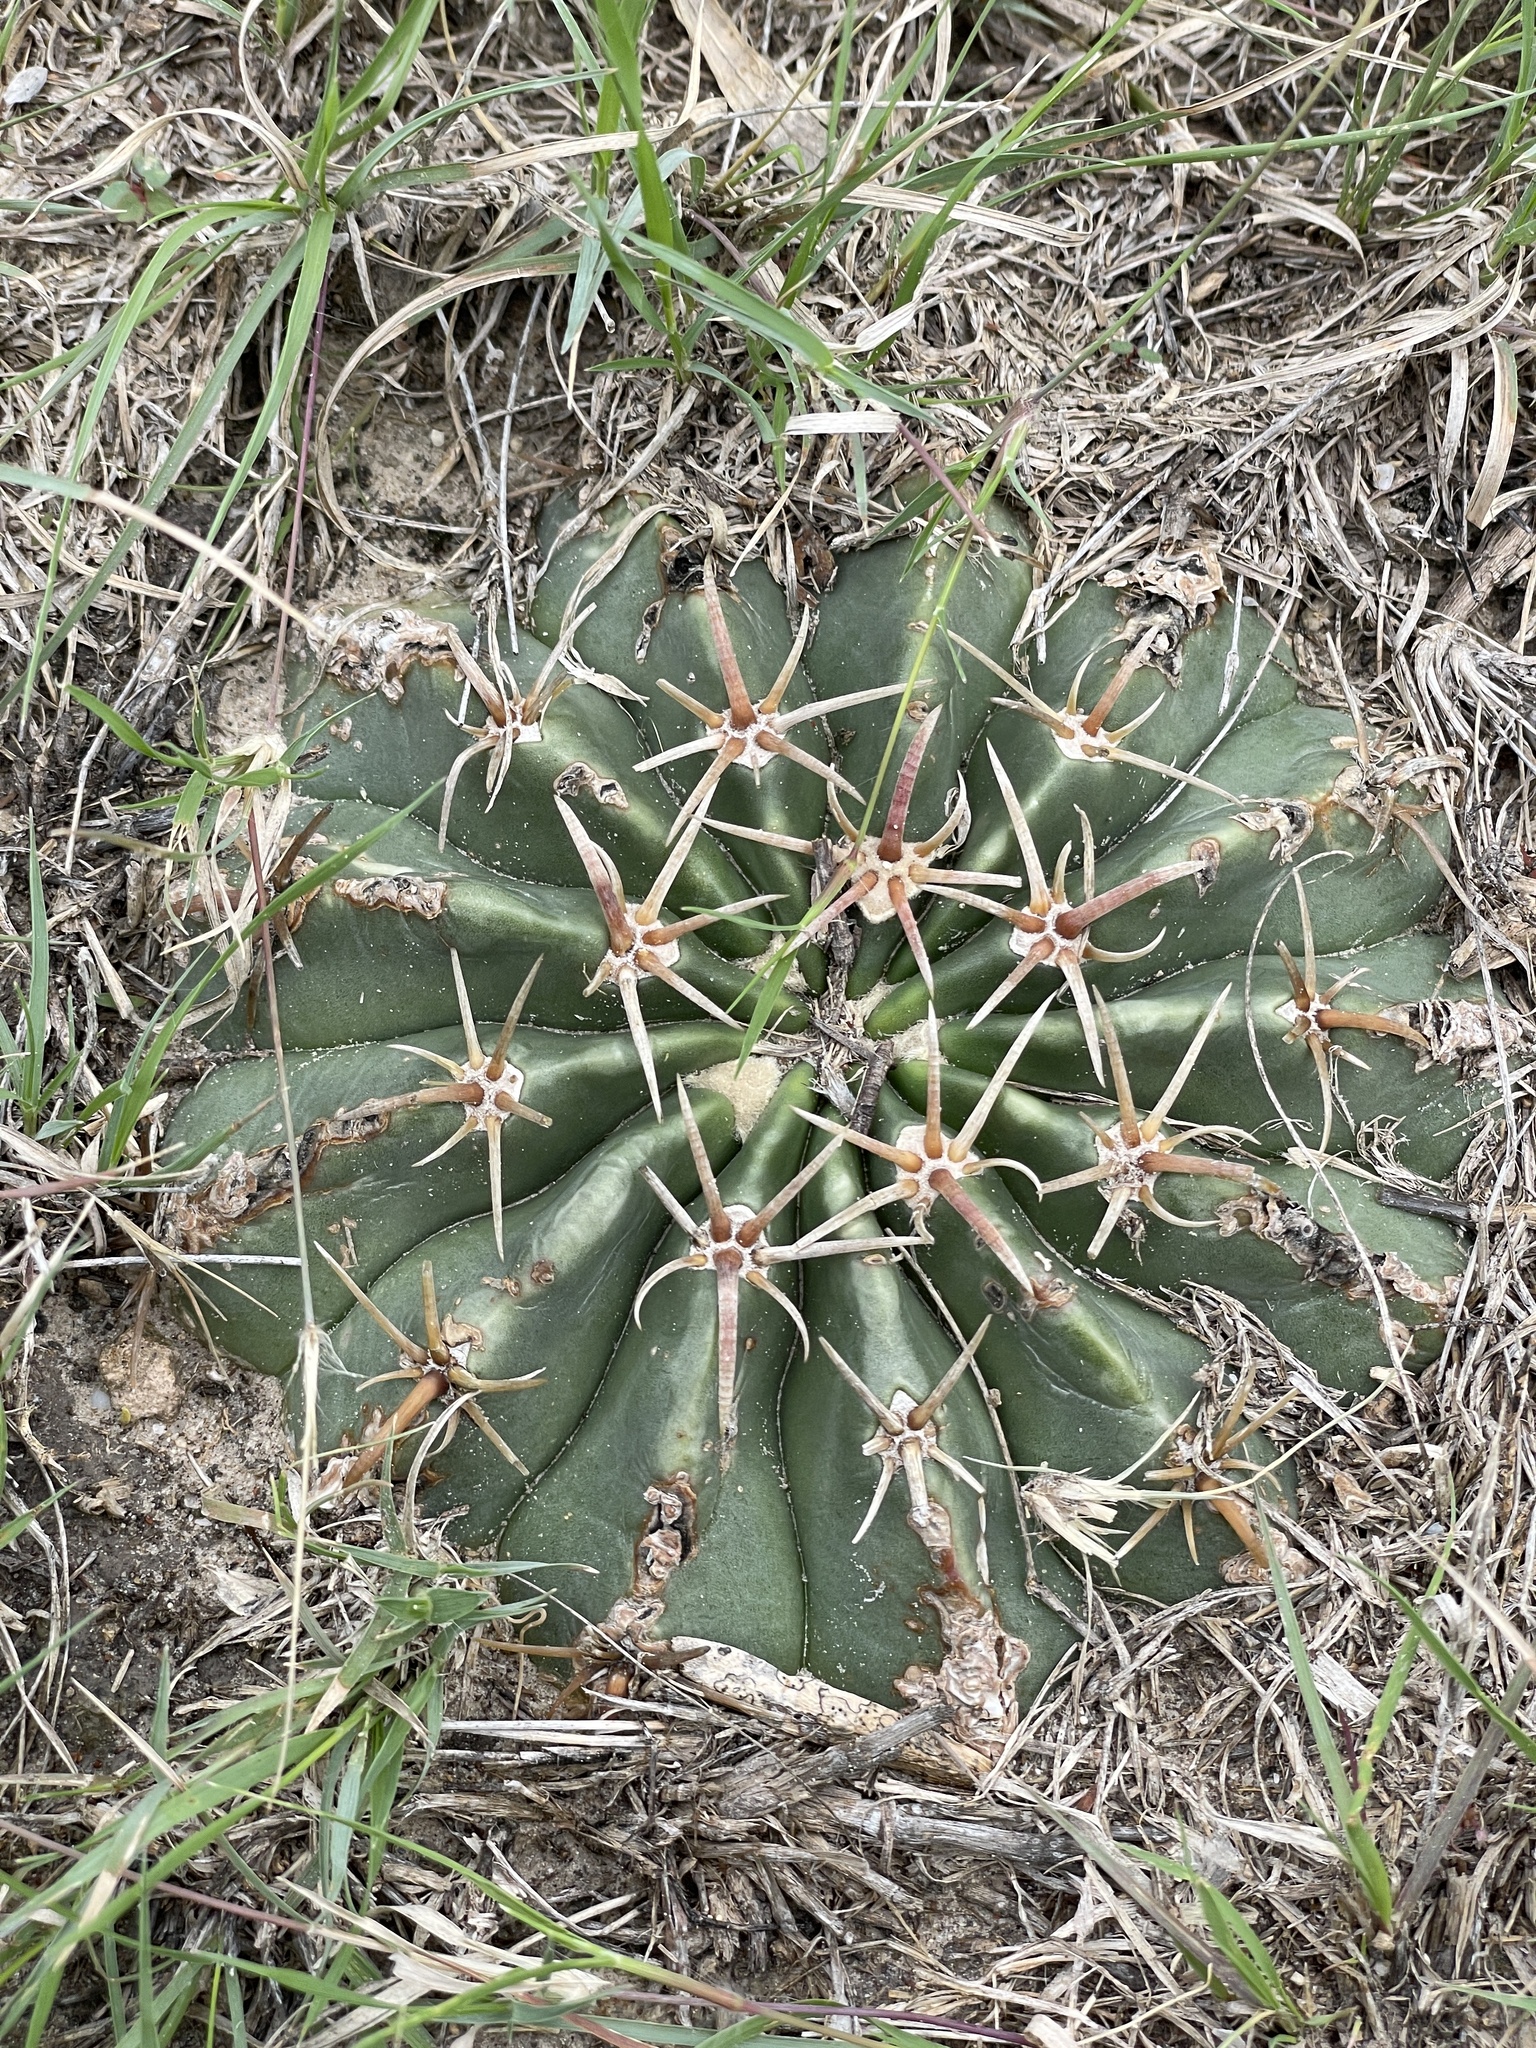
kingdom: Plantae
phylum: Tracheophyta
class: Magnoliopsida
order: Caryophyllales
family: Cactaceae
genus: Echinocactus
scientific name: Echinocactus texensis
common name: Devil's pincushion
